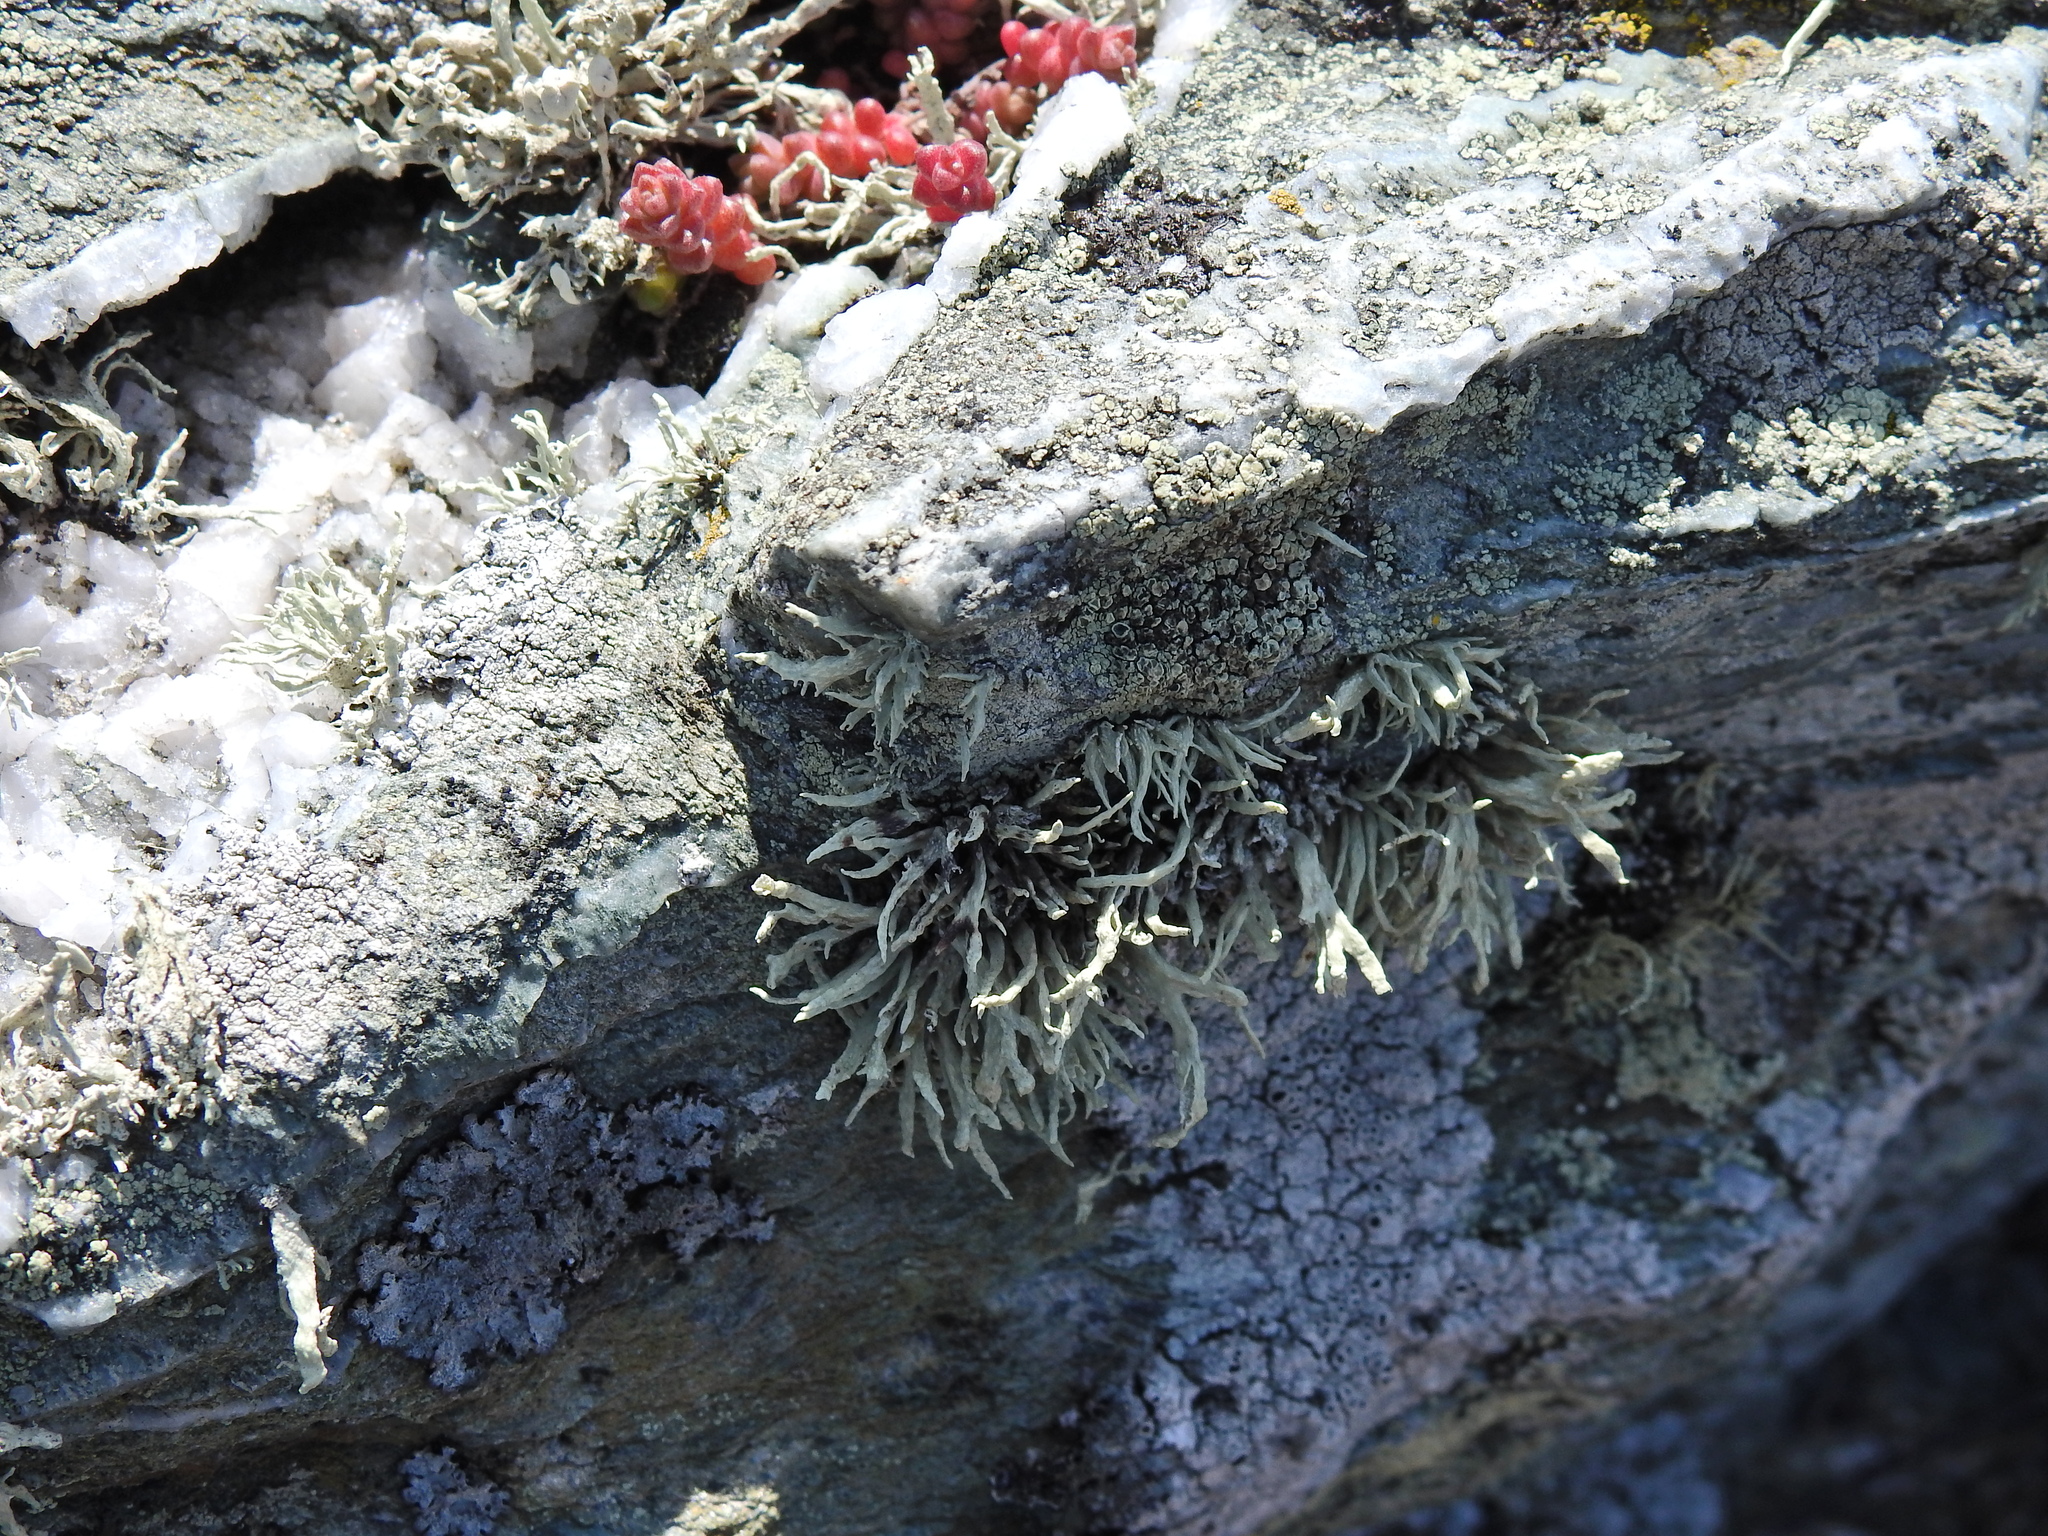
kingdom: Fungi
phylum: Ascomycota
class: Lecanoromycetes
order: Lecanorales
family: Ramalinaceae
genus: Ramalina
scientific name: Ramalina siliquosa
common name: Sea ivory
